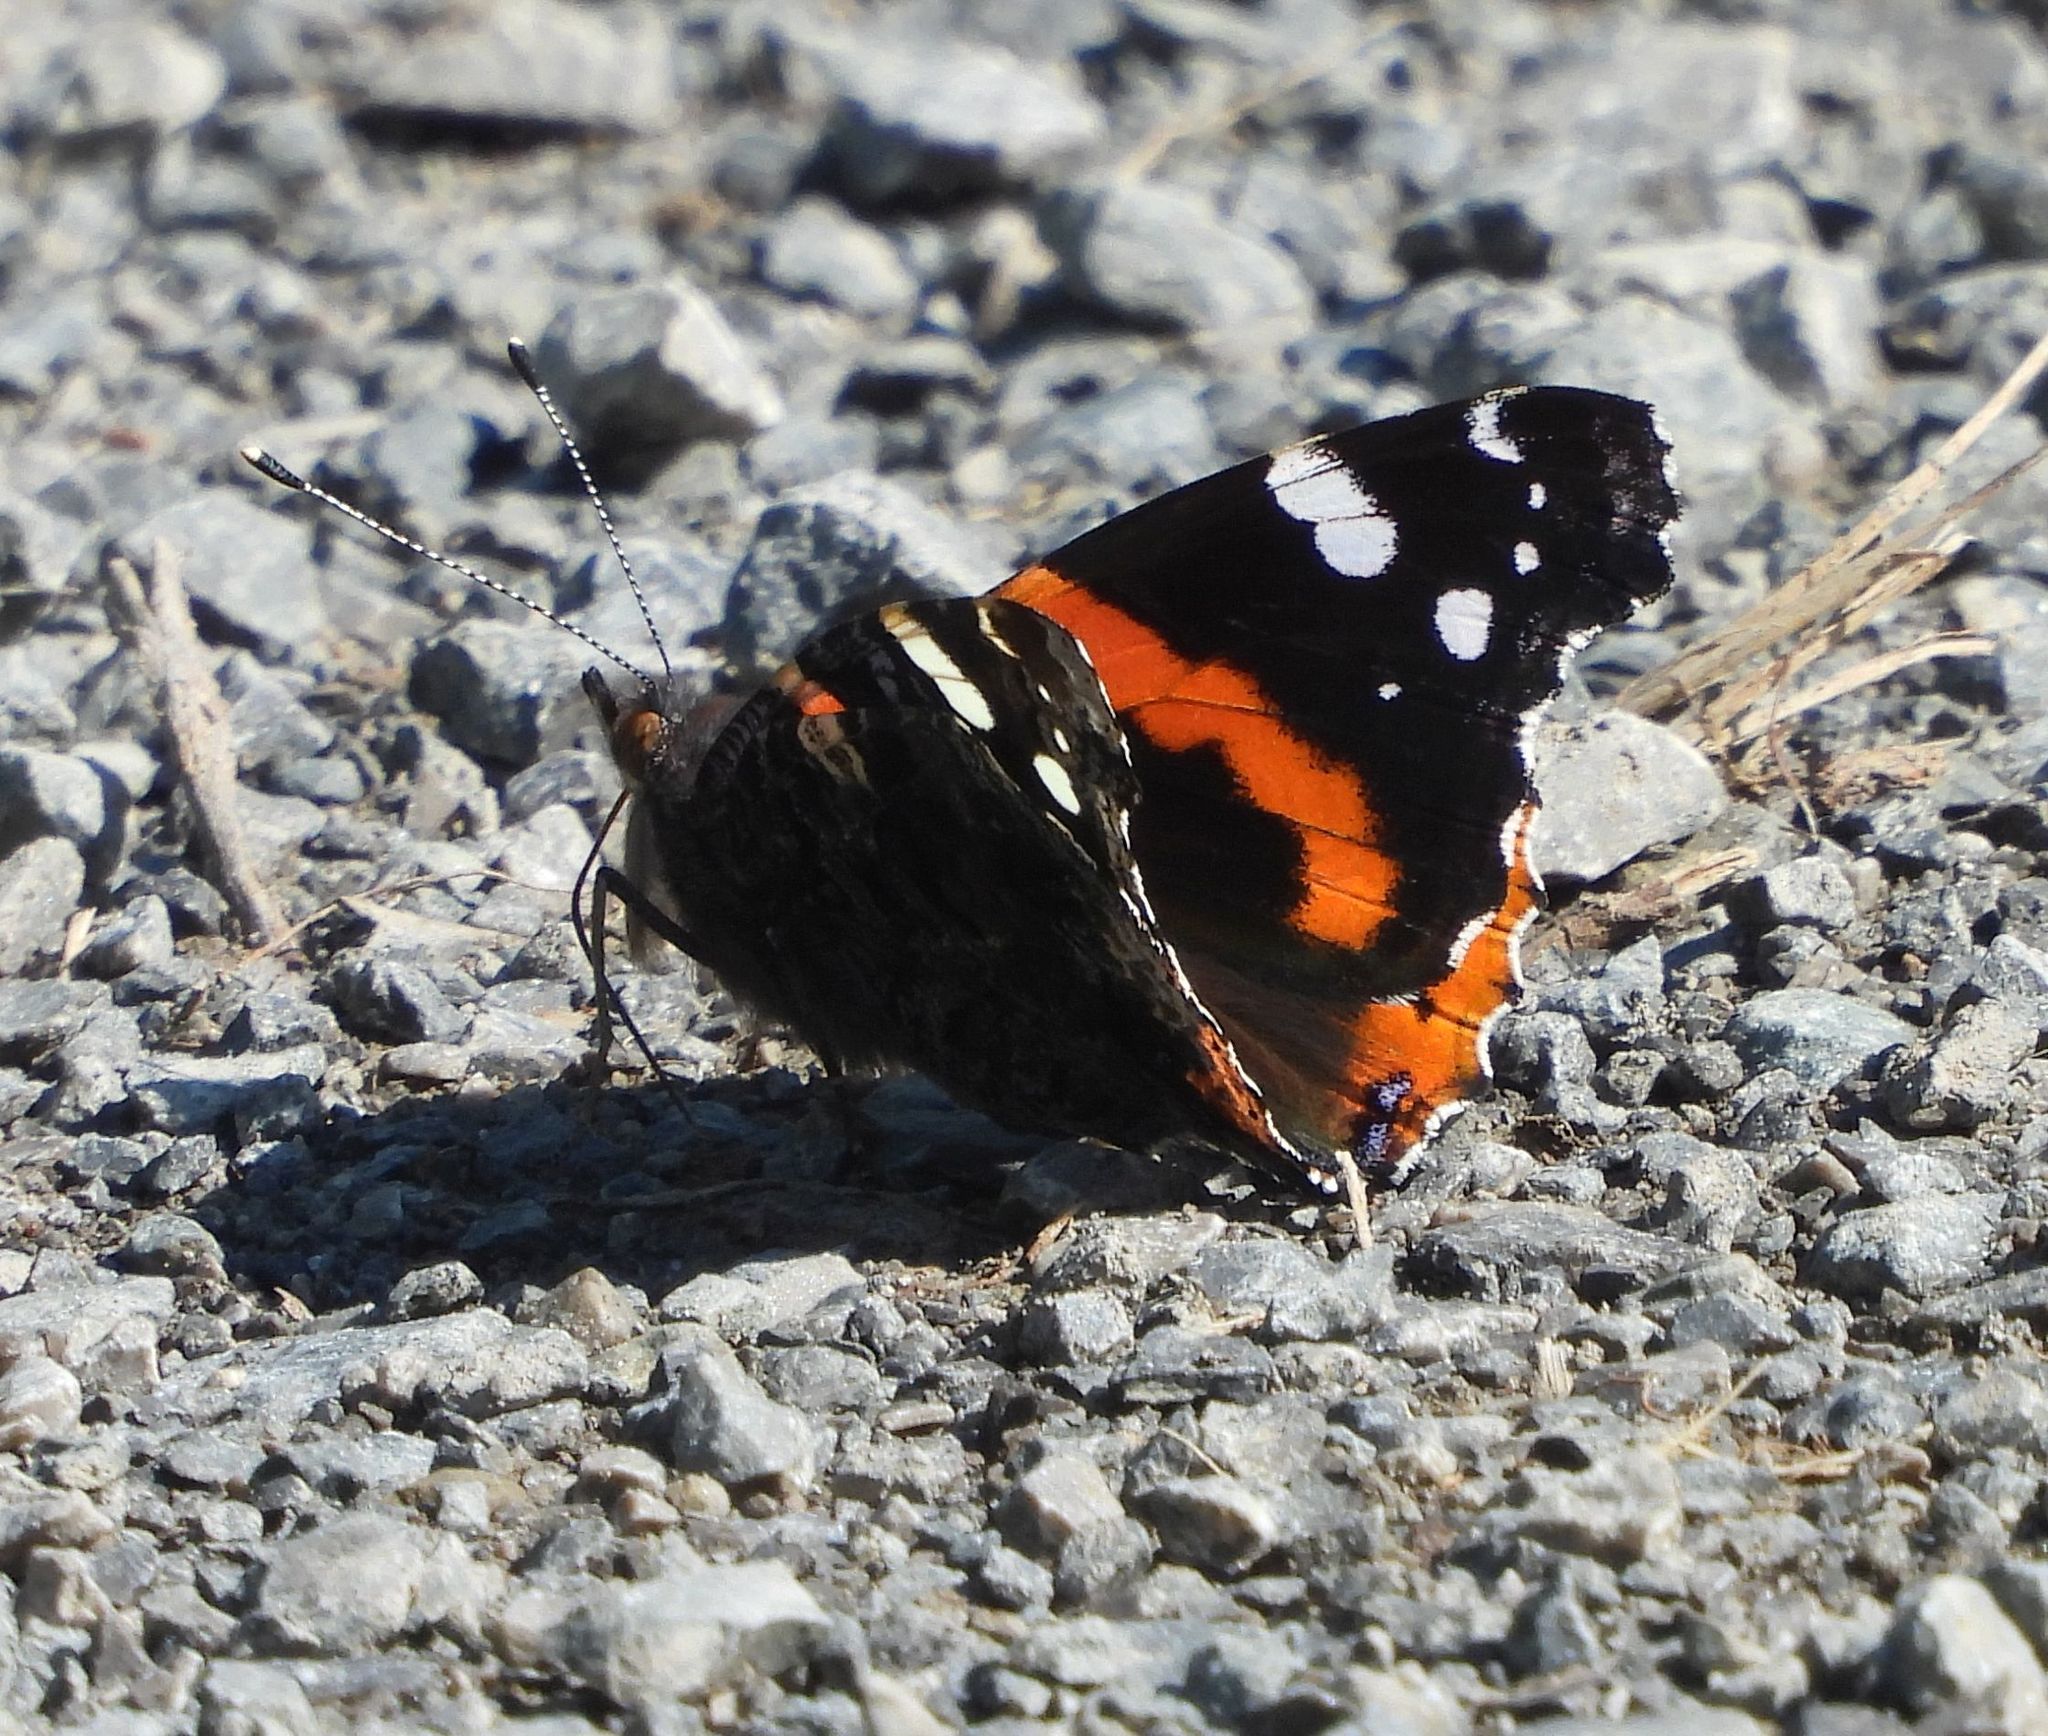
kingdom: Animalia
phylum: Arthropoda
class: Insecta
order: Lepidoptera
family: Nymphalidae
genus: Vanessa
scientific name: Vanessa atalanta
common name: Red admiral
